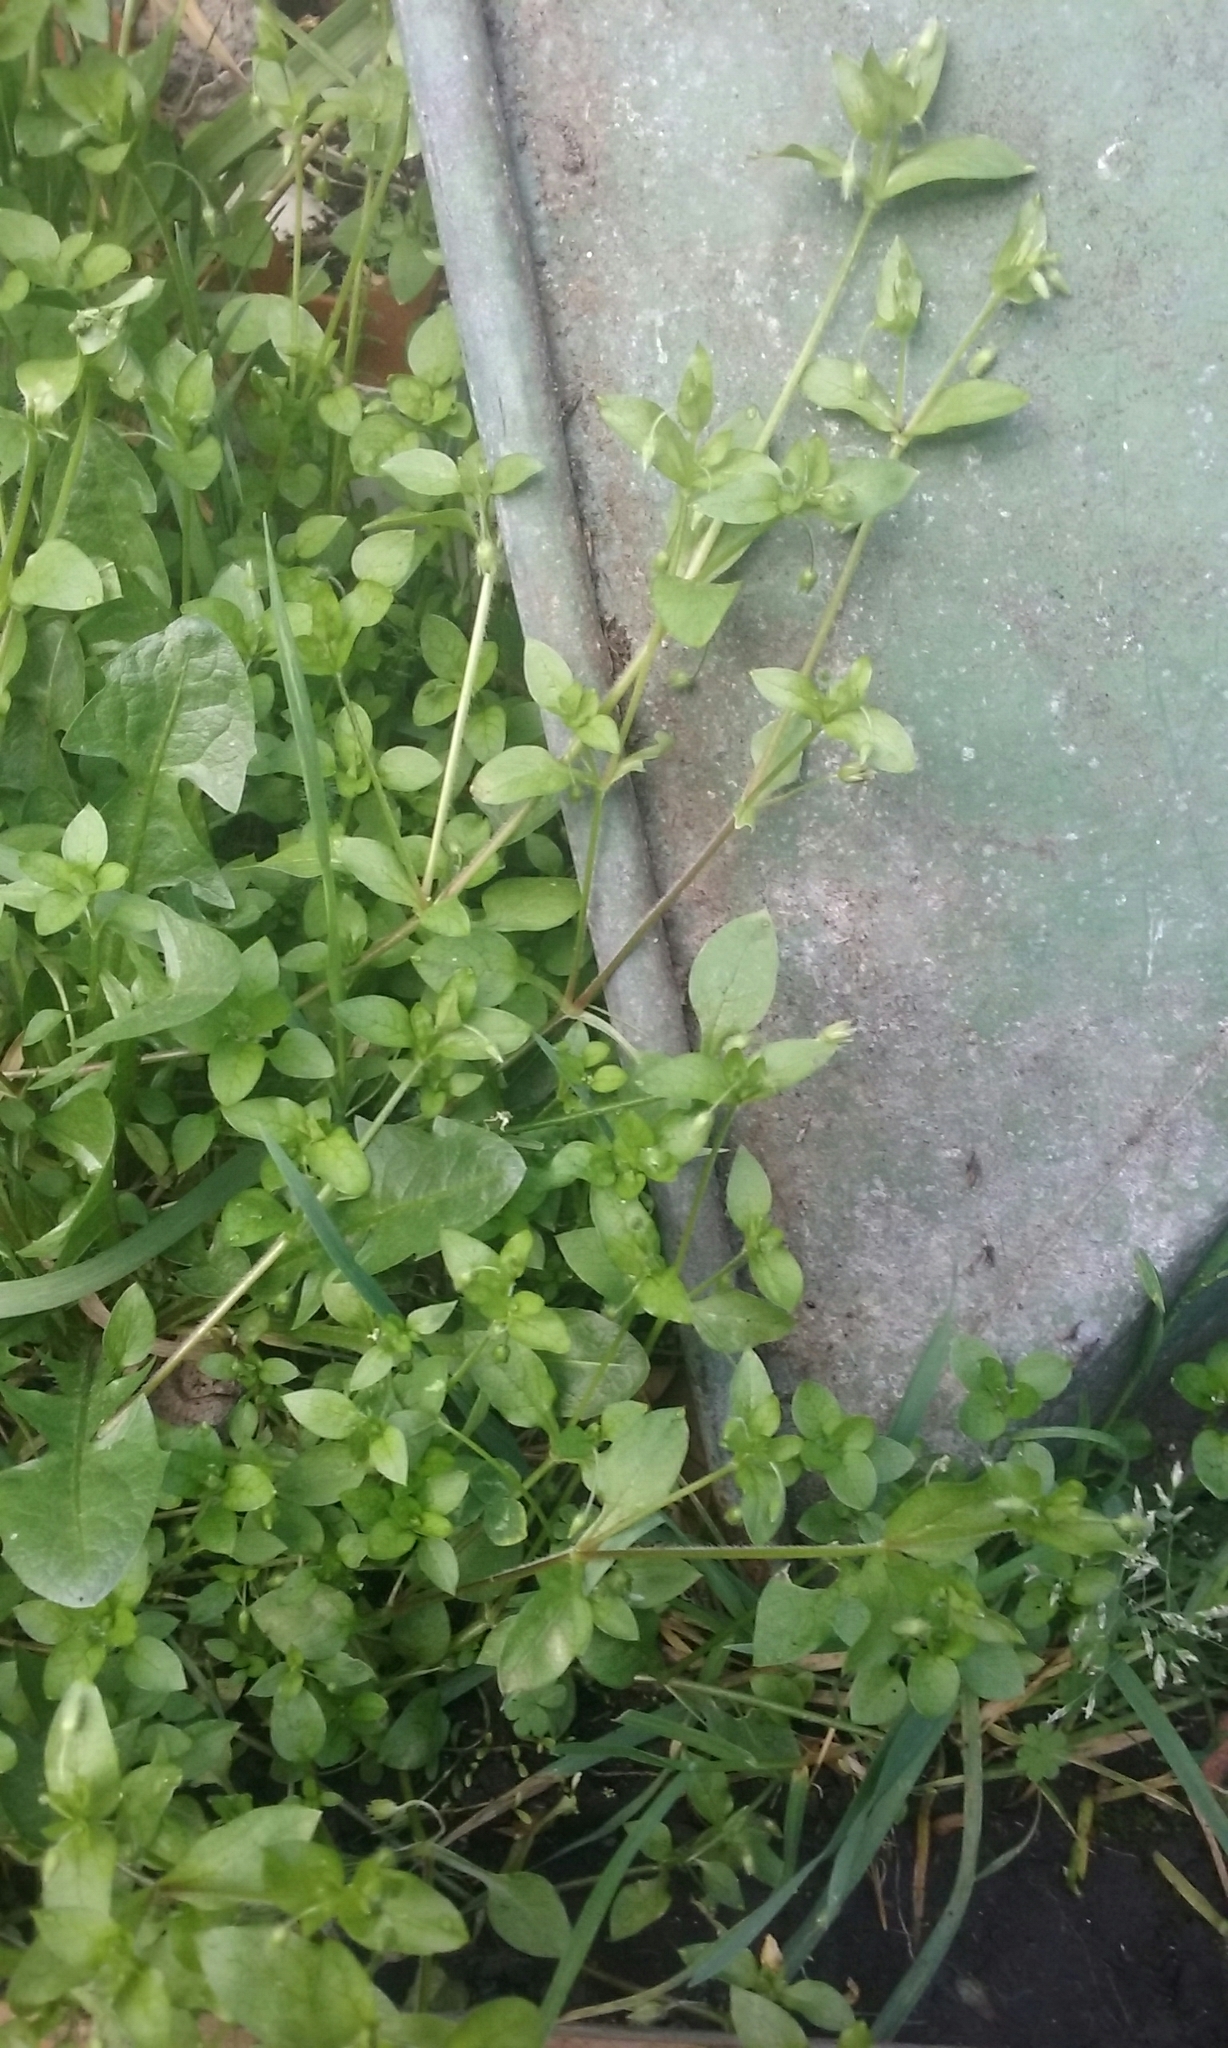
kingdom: Plantae
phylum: Tracheophyta
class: Magnoliopsida
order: Caryophyllales
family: Caryophyllaceae
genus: Stellaria
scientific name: Stellaria media
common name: Common chickweed
